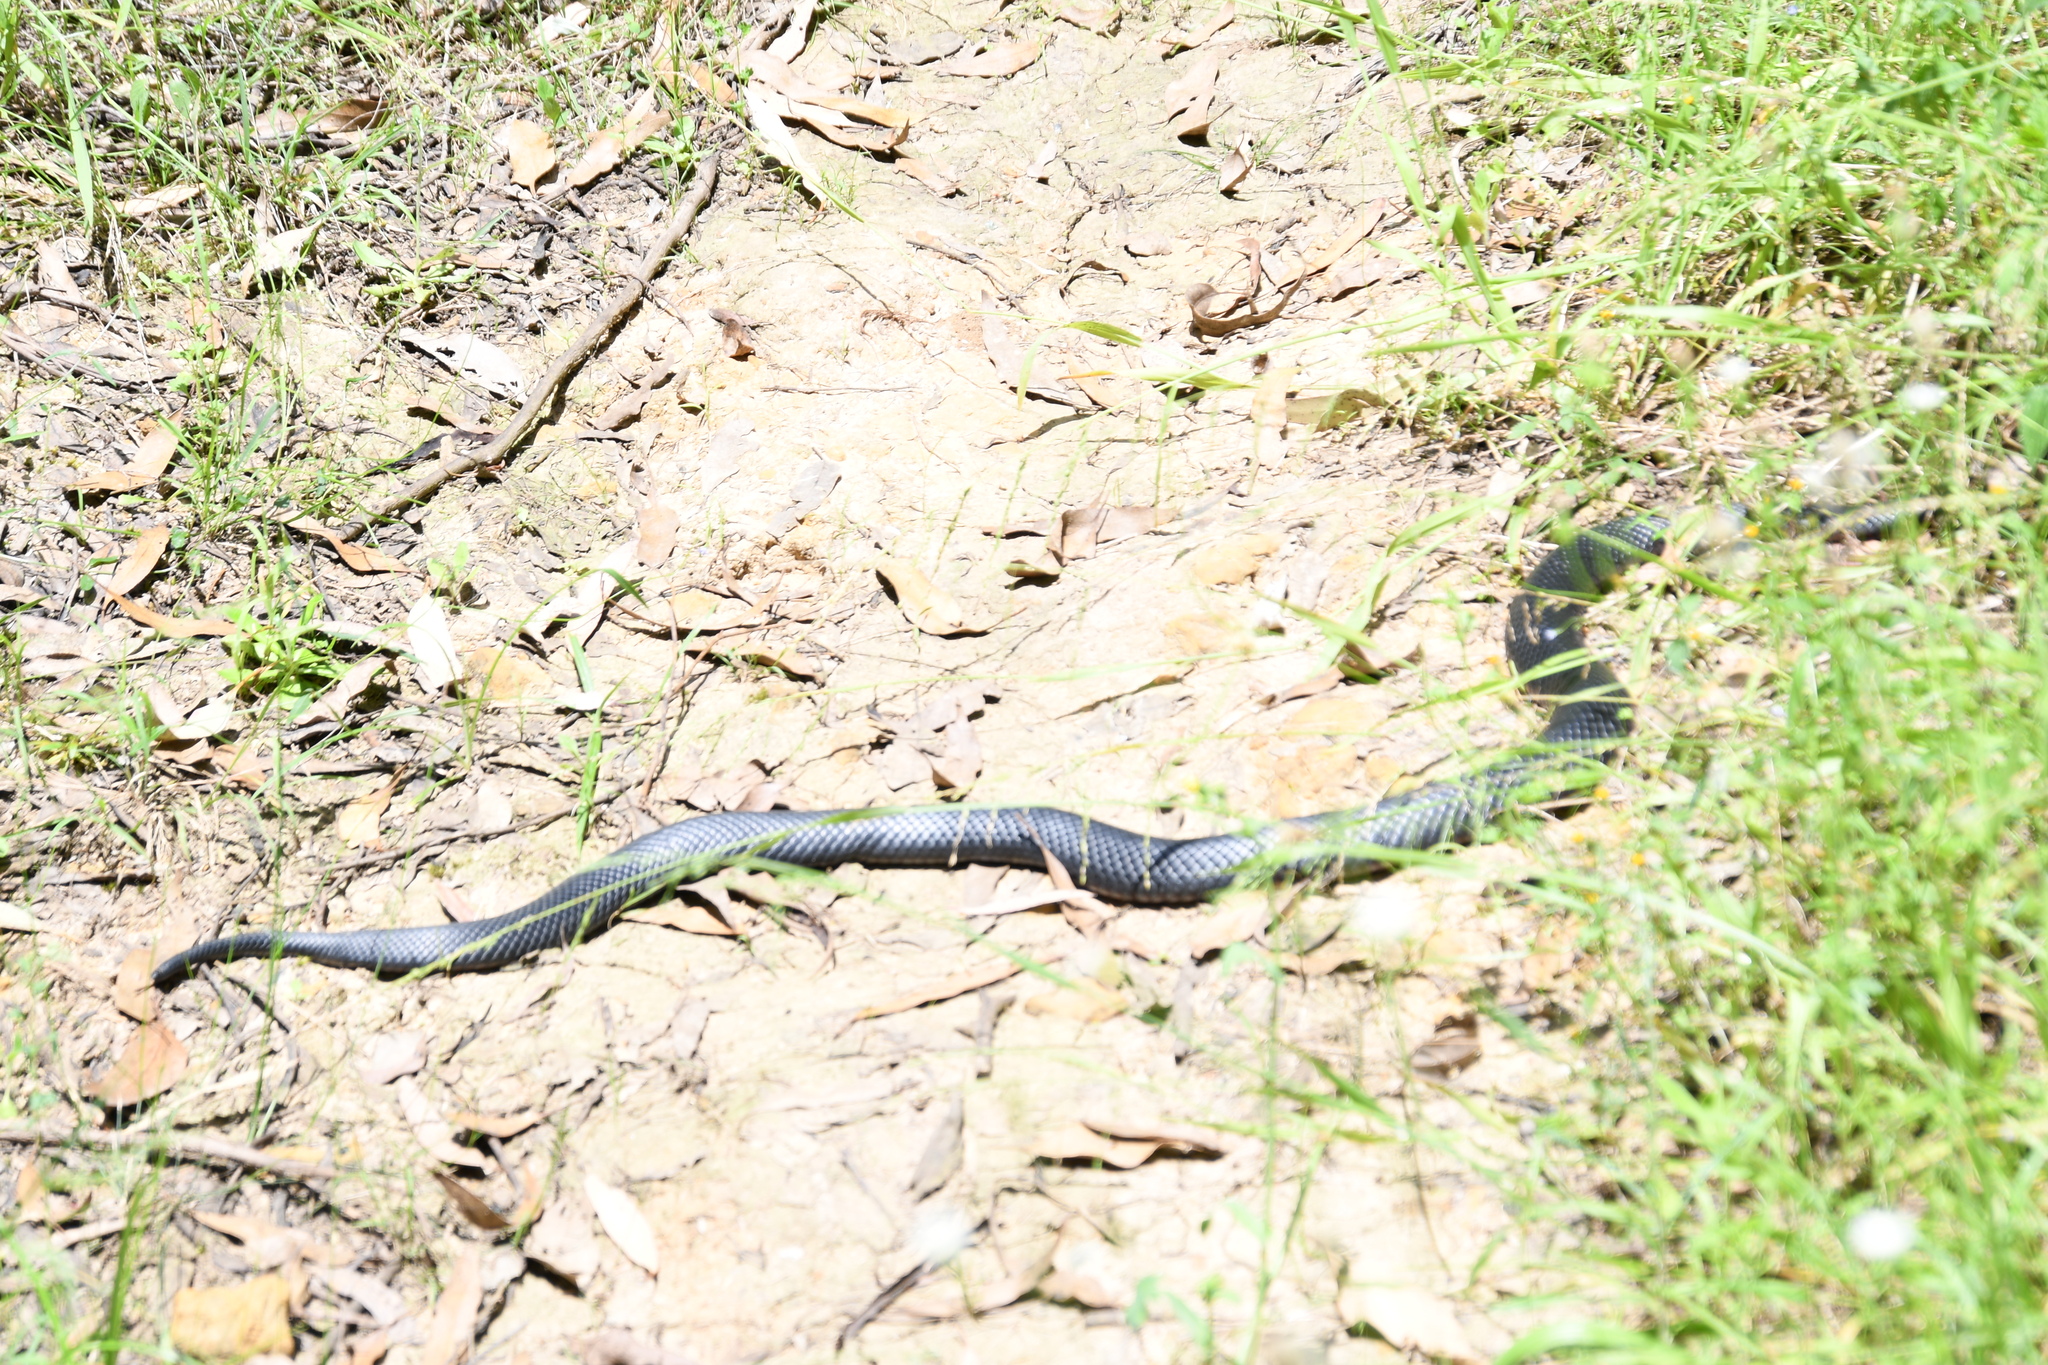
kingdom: Animalia
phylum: Chordata
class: Squamata
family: Elapidae
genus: Pseudechis
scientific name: Pseudechis porphyriacus
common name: Australian black snake
